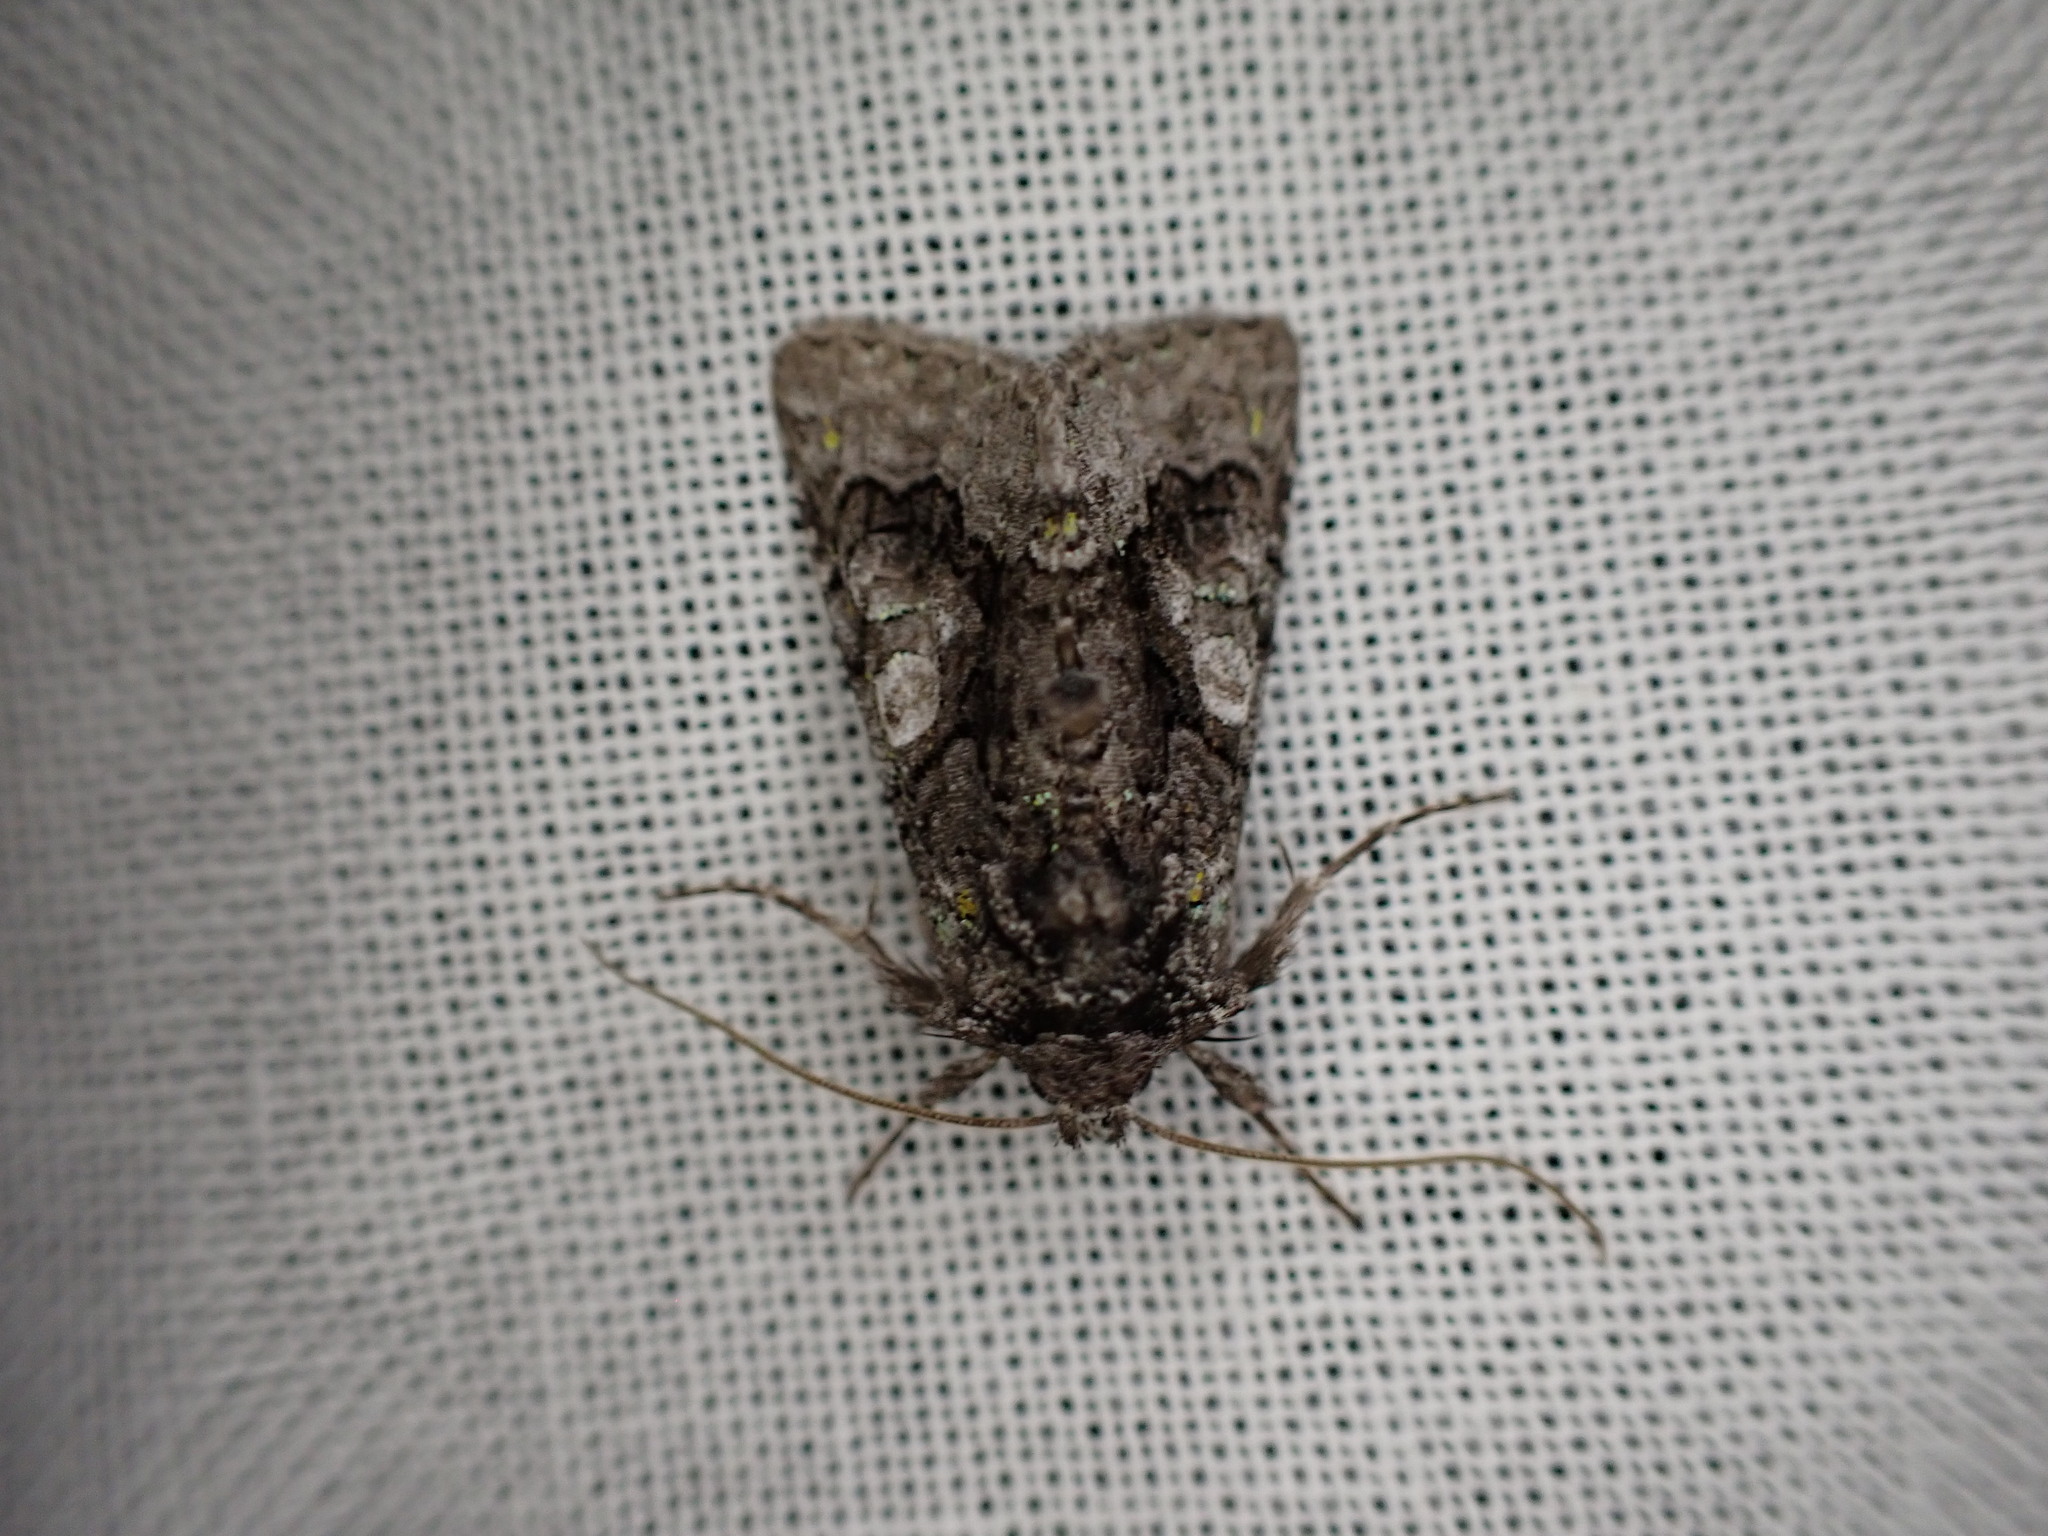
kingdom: Animalia
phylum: Arthropoda
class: Insecta
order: Lepidoptera
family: Noctuidae
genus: Behrensia
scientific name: Behrensia conchiformis
